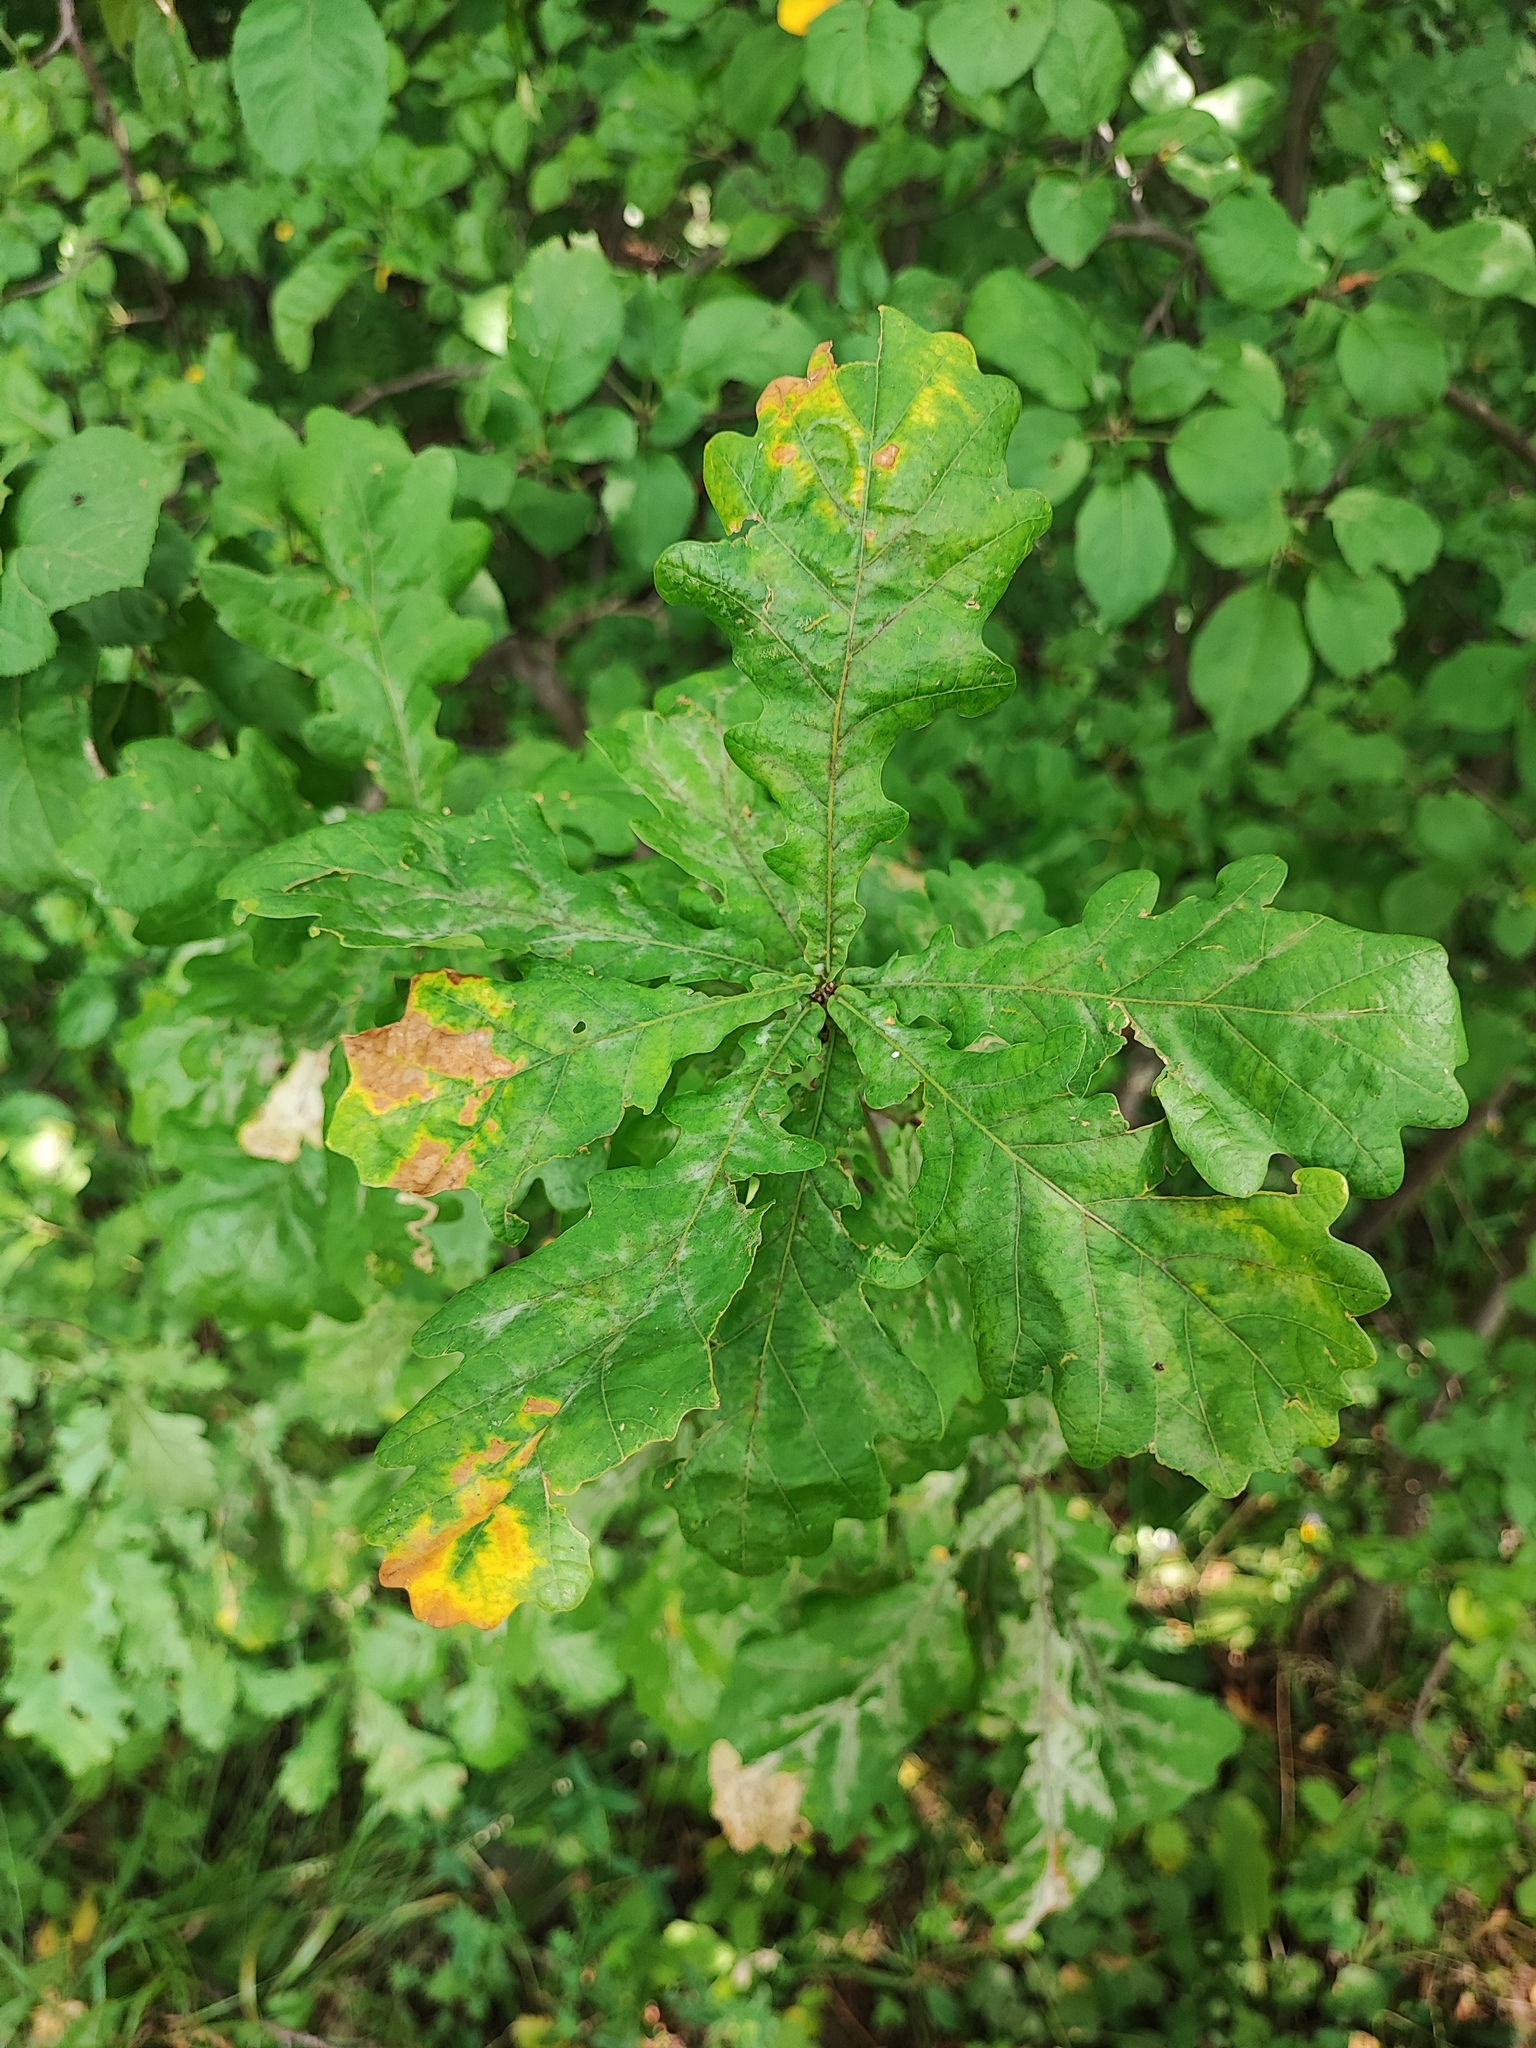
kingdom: Plantae
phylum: Tracheophyta
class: Magnoliopsida
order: Fagales
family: Fagaceae
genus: Quercus
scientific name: Quercus robur
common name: Pedunculate oak
